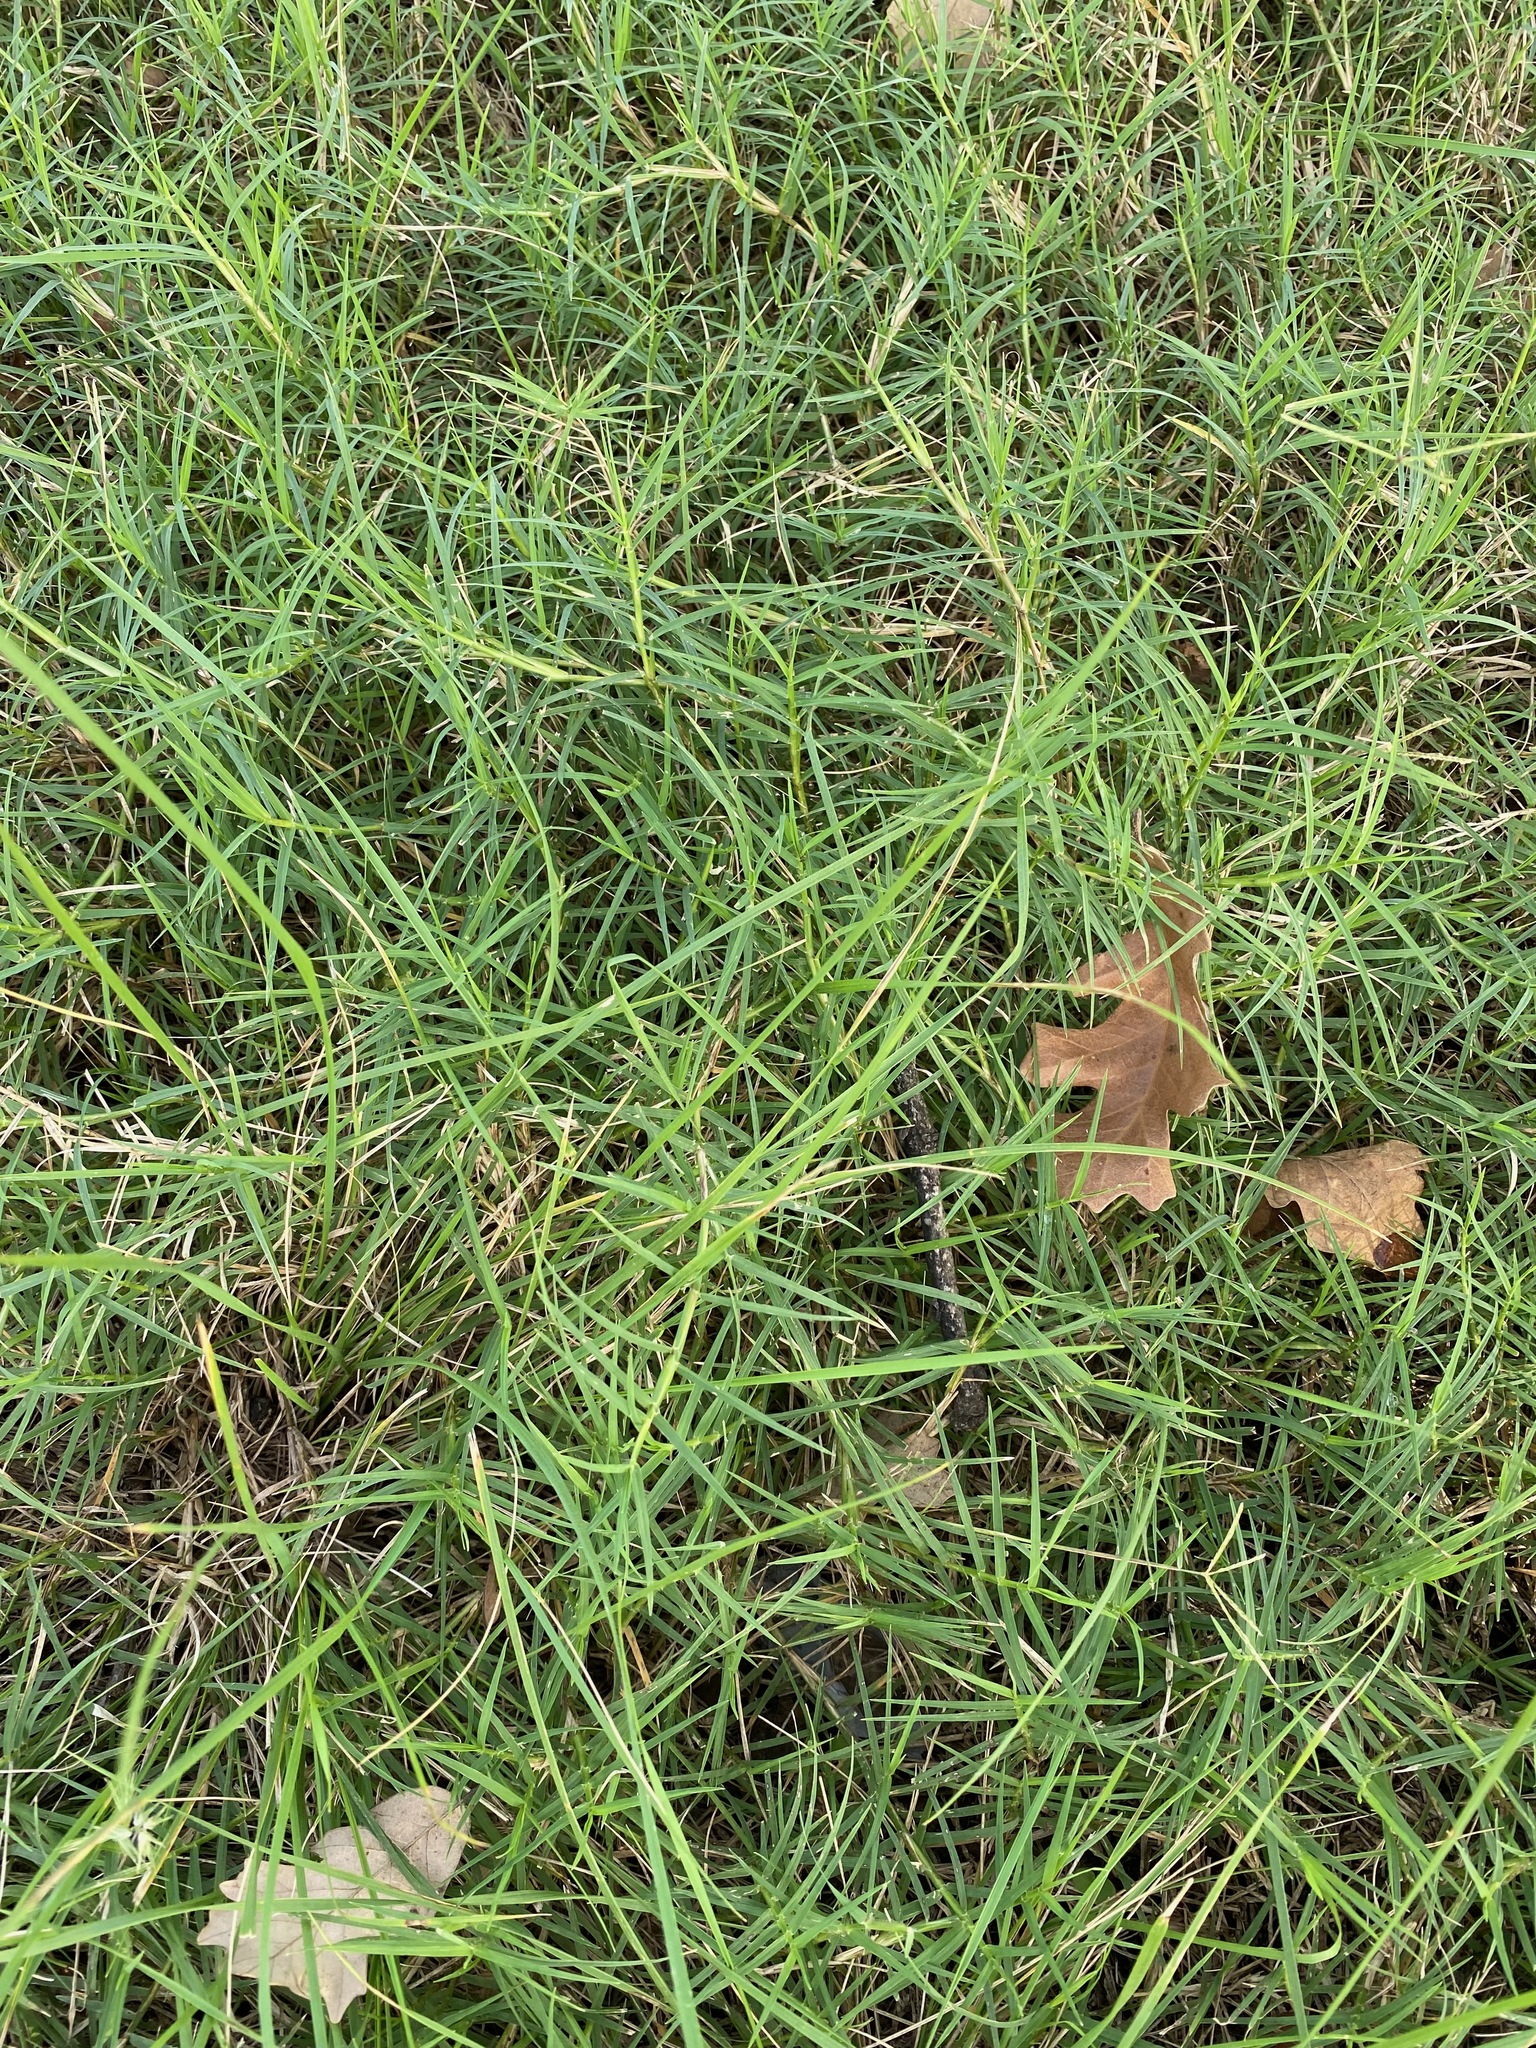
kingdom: Plantae
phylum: Tracheophyta
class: Liliopsida
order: Poales
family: Poaceae
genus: Cynodon
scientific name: Cynodon dactylon
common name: Bermuda grass
